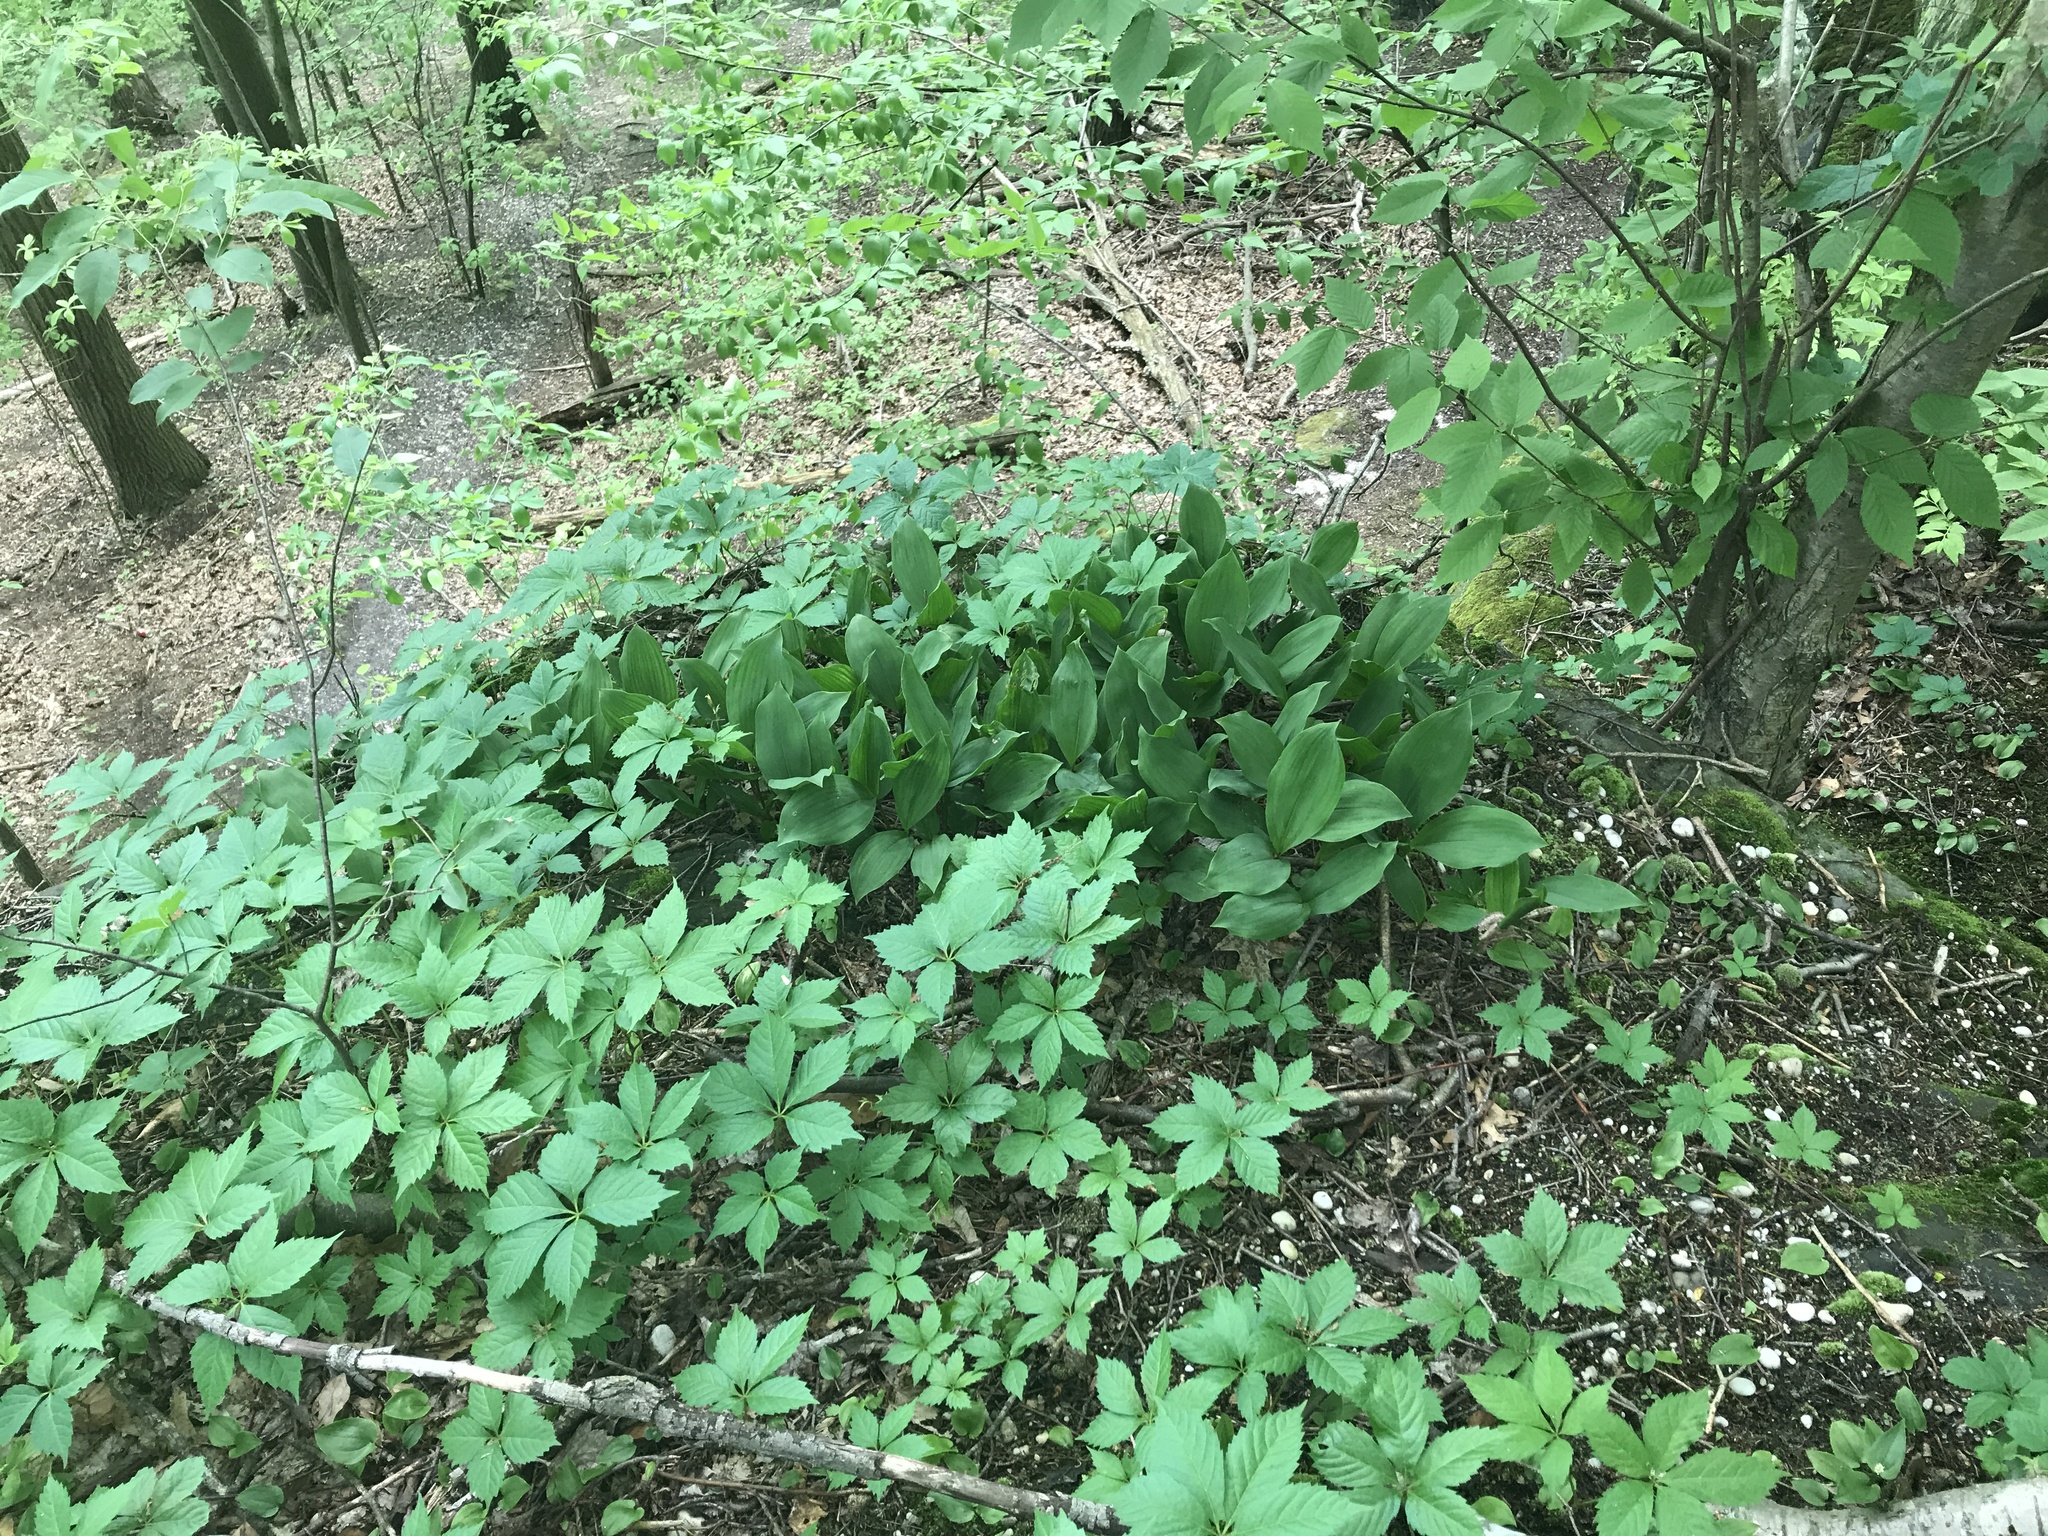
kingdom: Plantae
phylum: Tracheophyta
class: Liliopsida
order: Asparagales
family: Asparagaceae
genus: Convallaria
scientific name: Convallaria majalis
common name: Lily-of-the-valley
